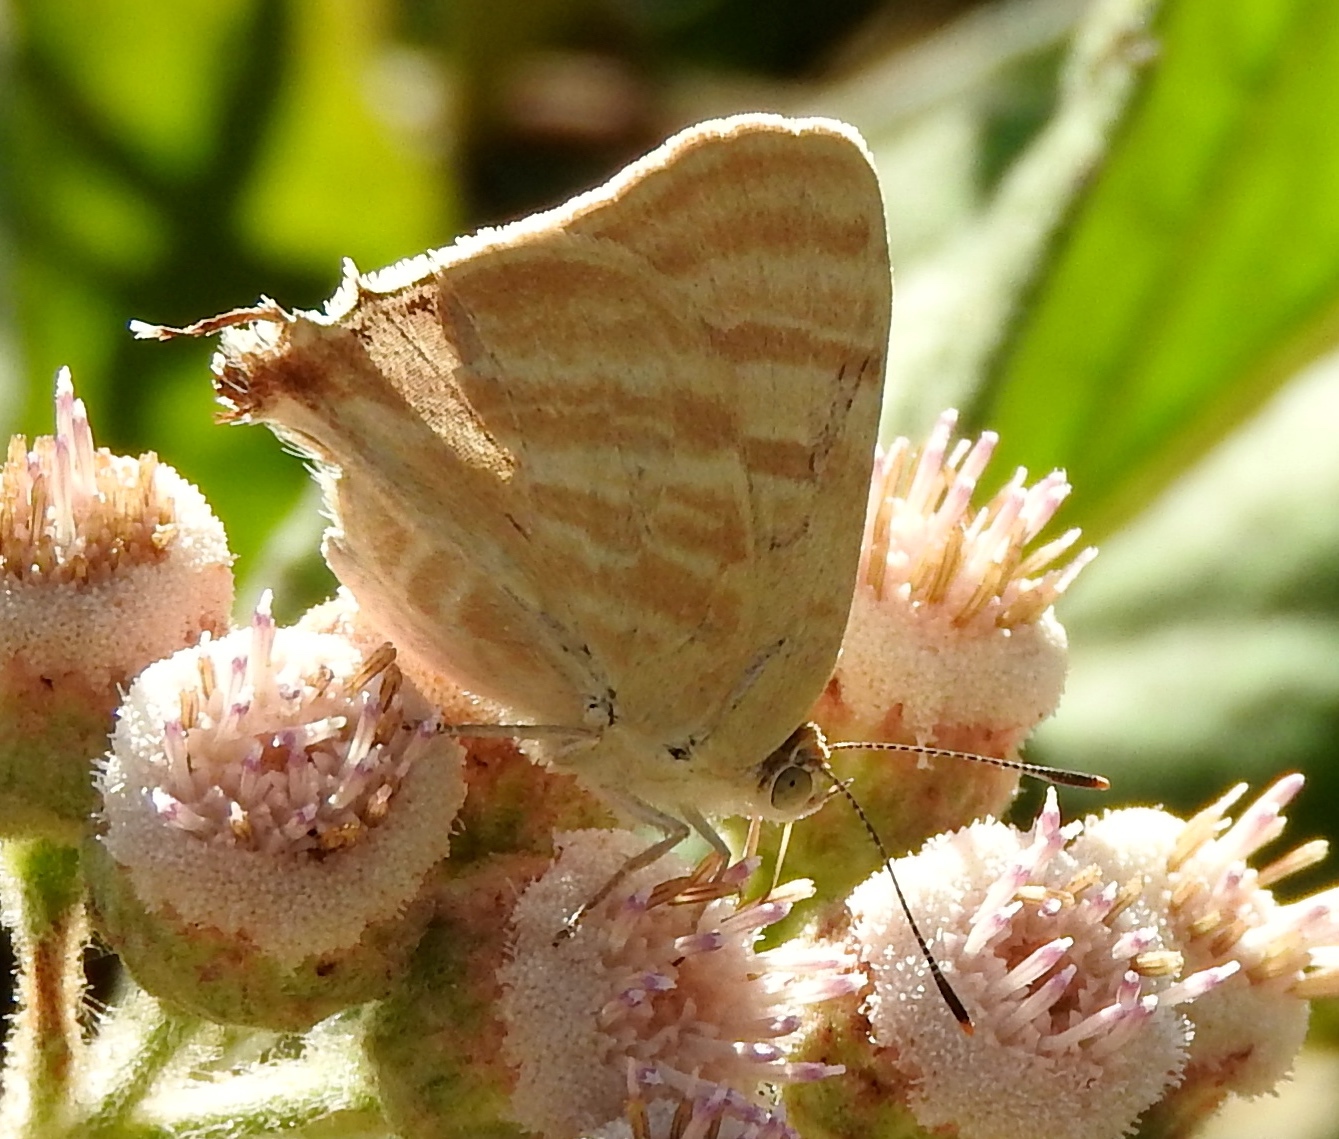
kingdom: Animalia
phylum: Arthropoda
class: Insecta
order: Lepidoptera
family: Lycaenidae
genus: Dolymorpha
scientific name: Dolymorpha jada
